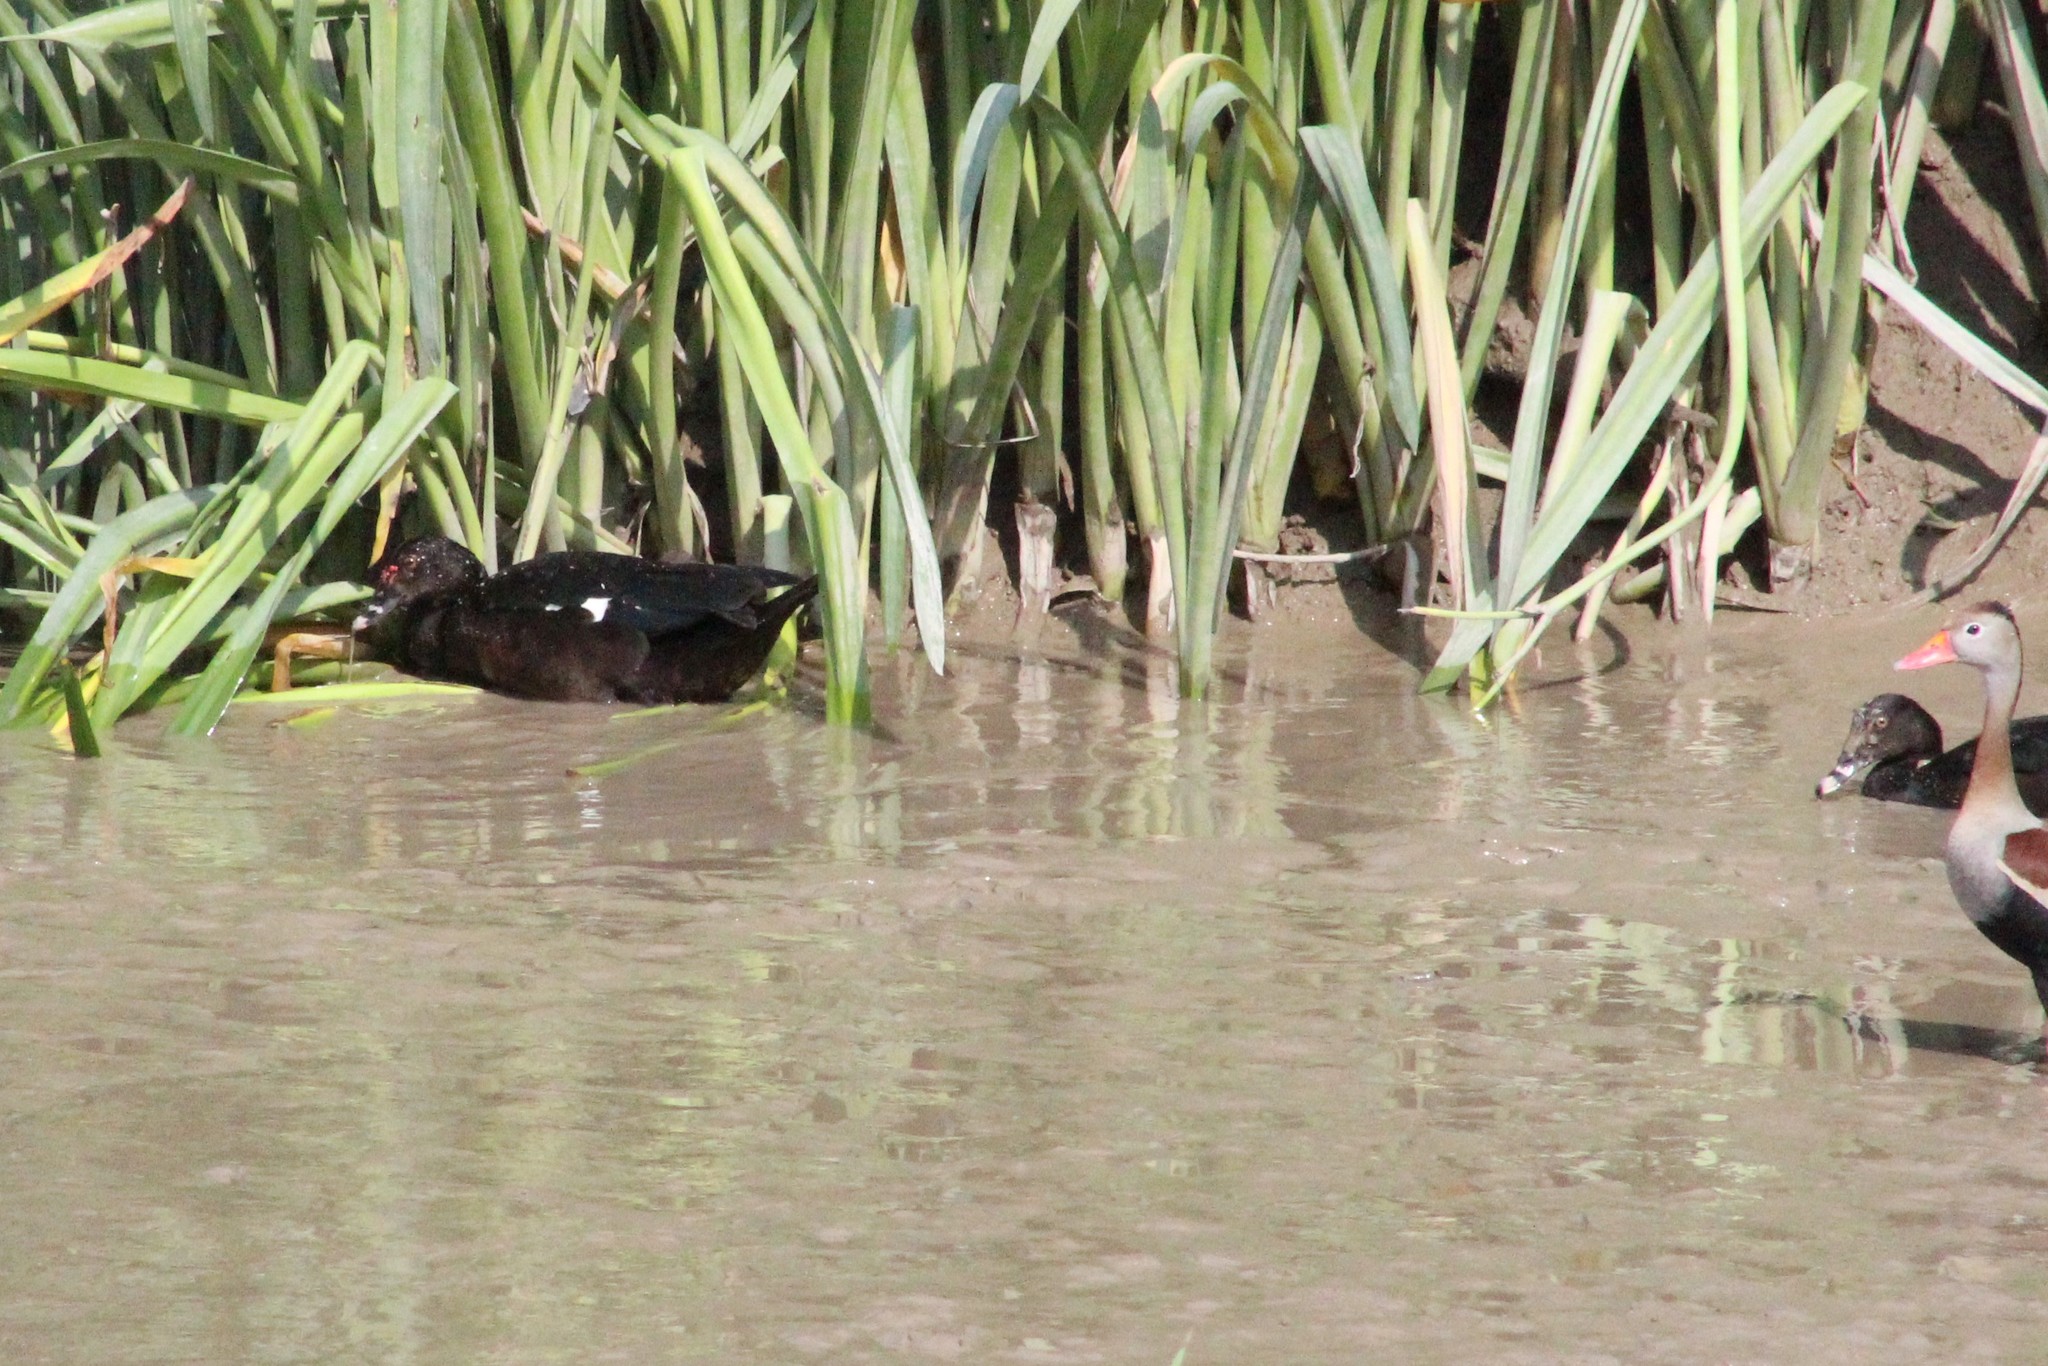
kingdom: Animalia
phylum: Chordata
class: Aves
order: Anseriformes
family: Anatidae
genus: Cairina
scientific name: Cairina moschata
